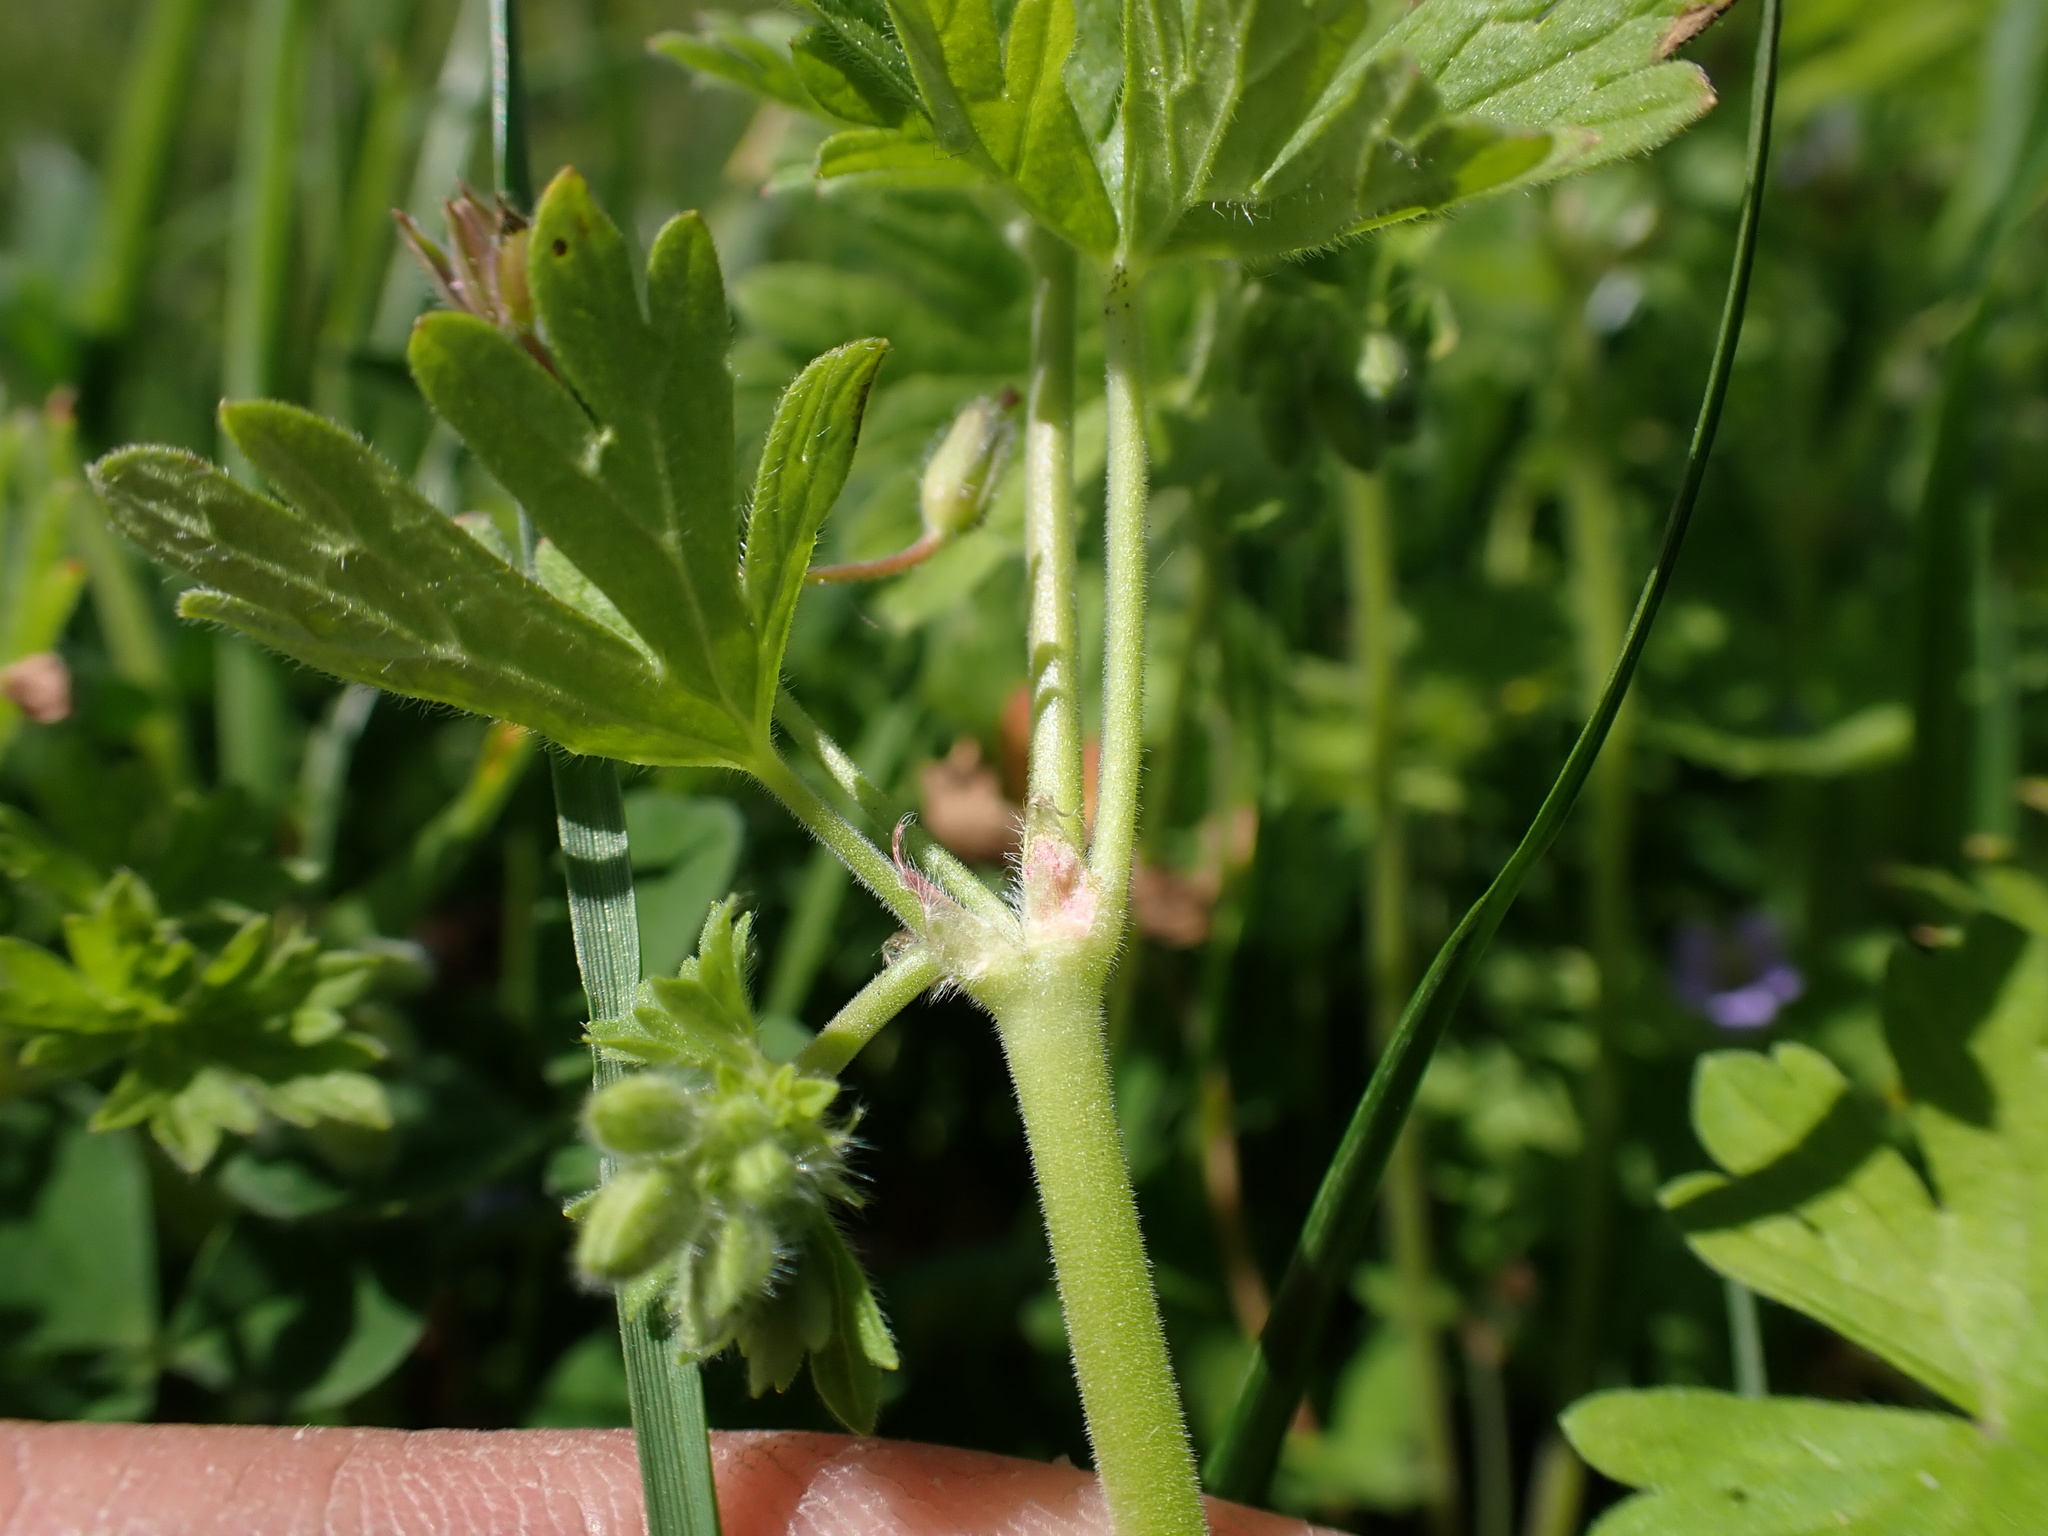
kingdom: Plantae
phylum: Tracheophyta
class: Magnoliopsida
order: Geraniales
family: Geraniaceae
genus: Geranium
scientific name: Geranium pusillum
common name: Small geranium
